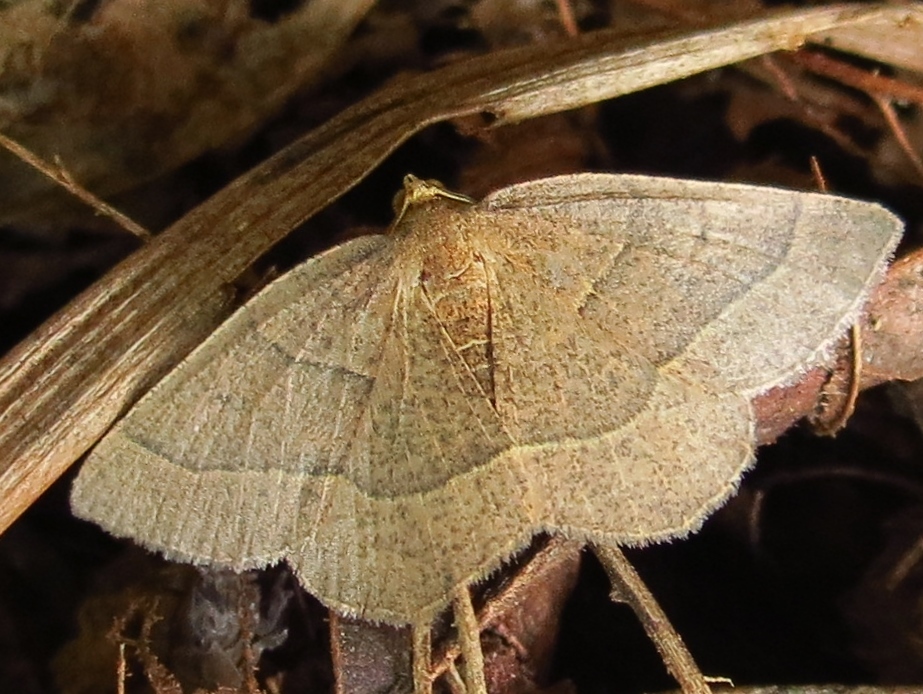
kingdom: Animalia
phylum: Arthropoda
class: Insecta
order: Lepidoptera
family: Geometridae
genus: Episemasia
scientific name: Episemasia cervinaria
